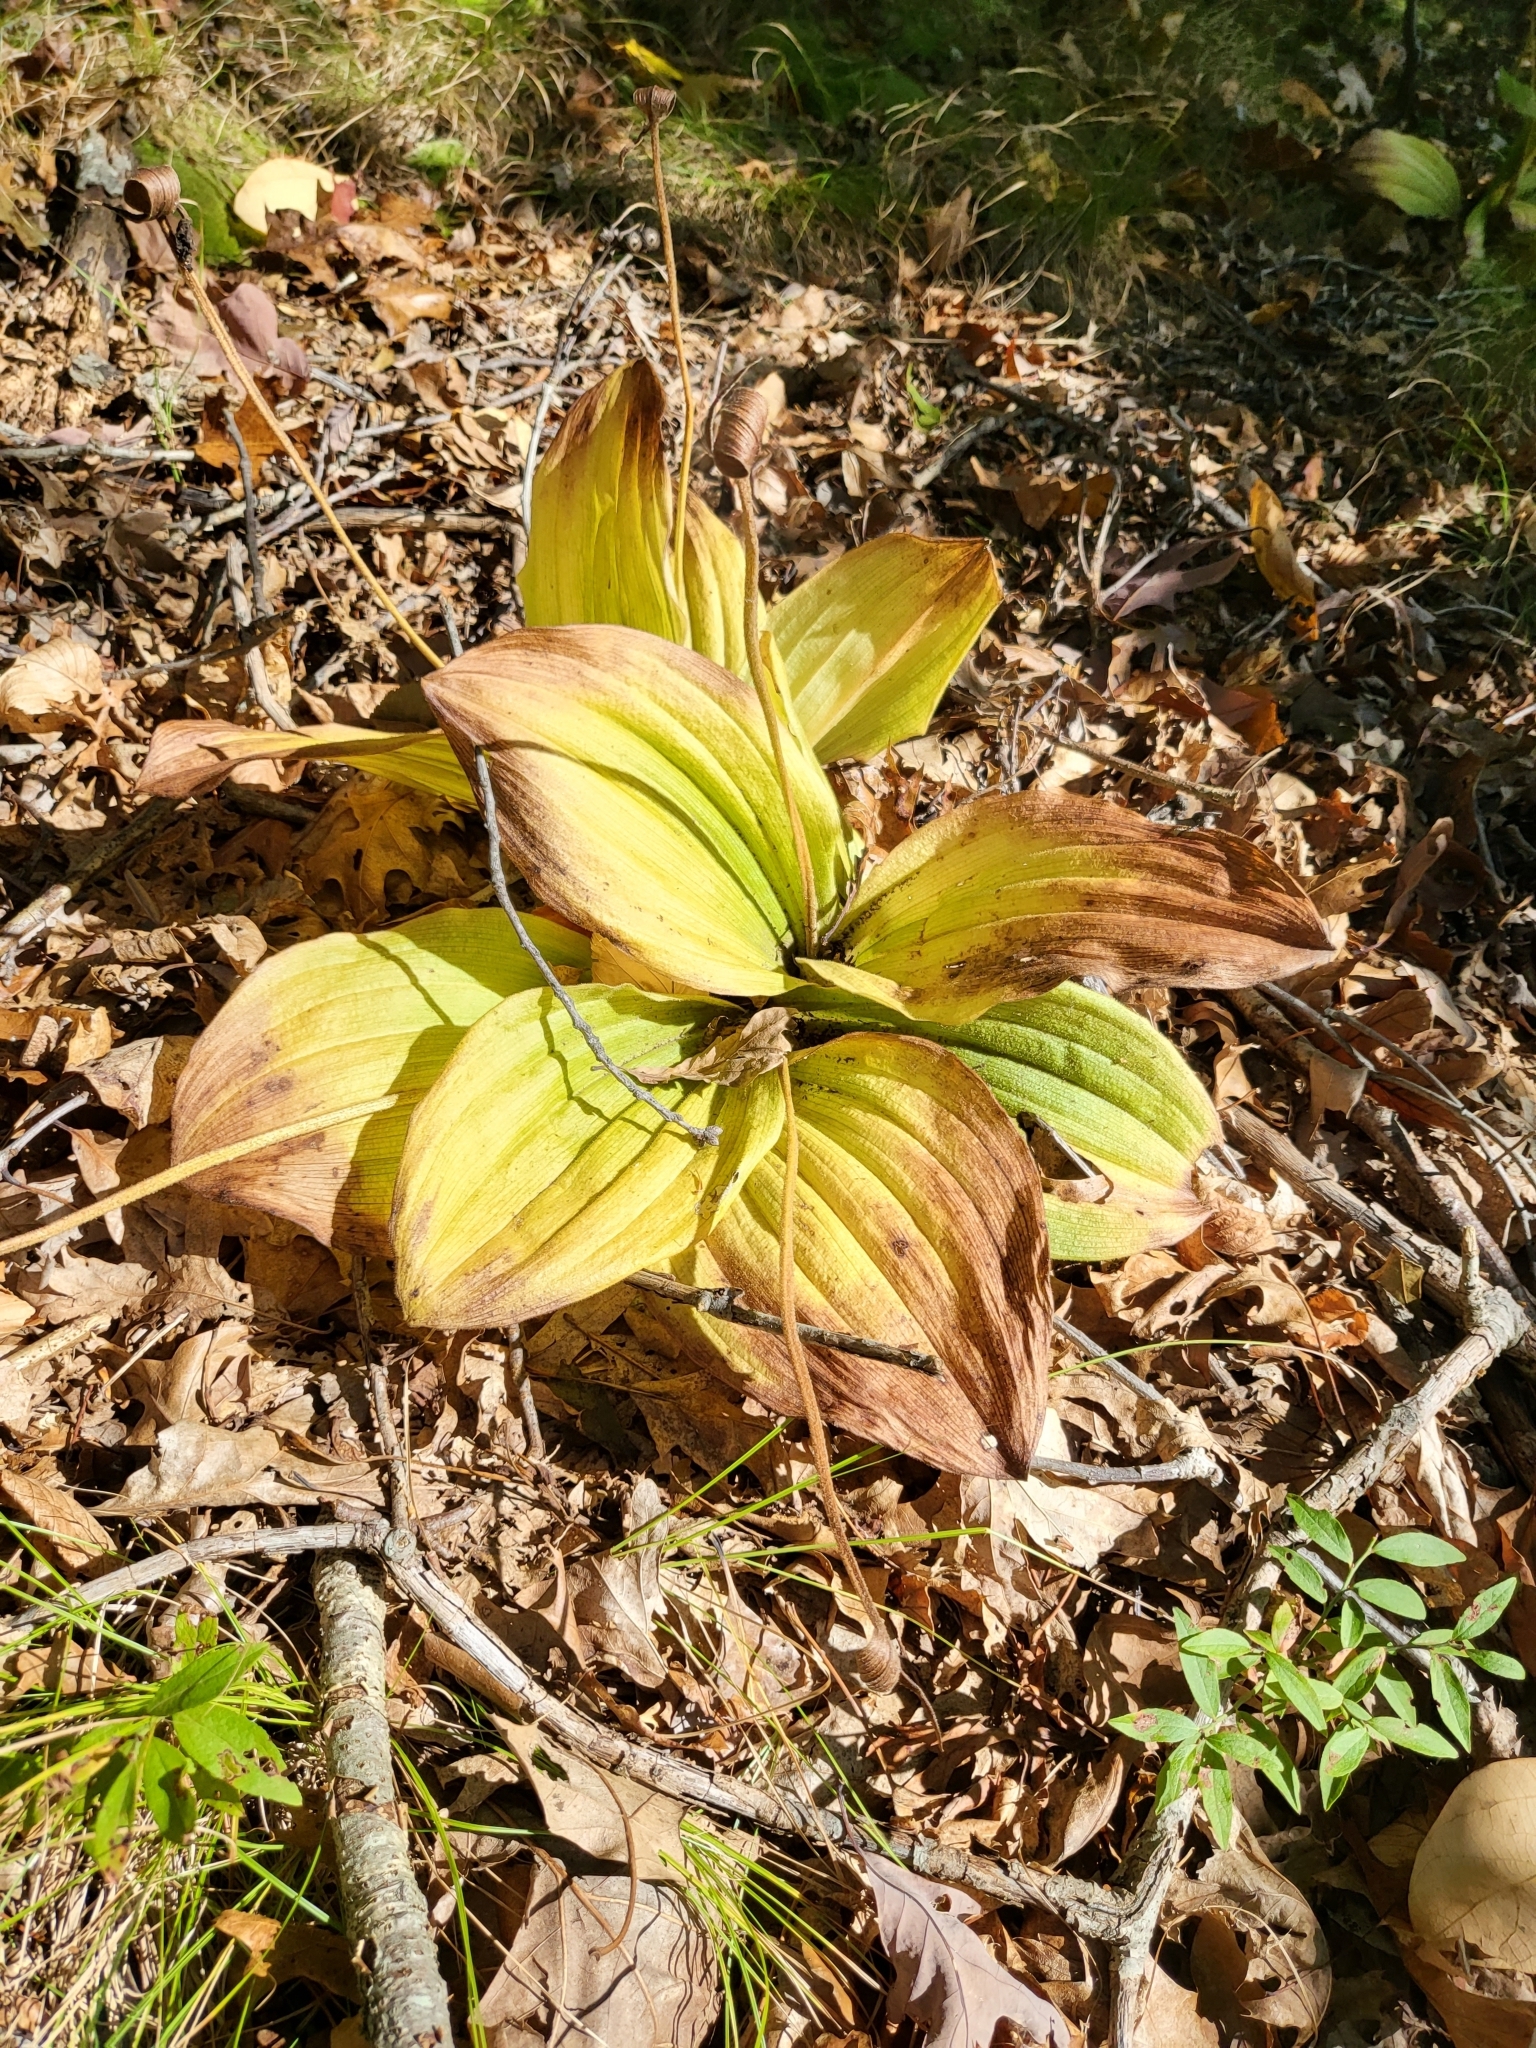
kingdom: Plantae
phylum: Tracheophyta
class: Liliopsida
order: Asparagales
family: Orchidaceae
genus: Cypripedium
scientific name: Cypripedium acaule
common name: Pink lady's-slipper
